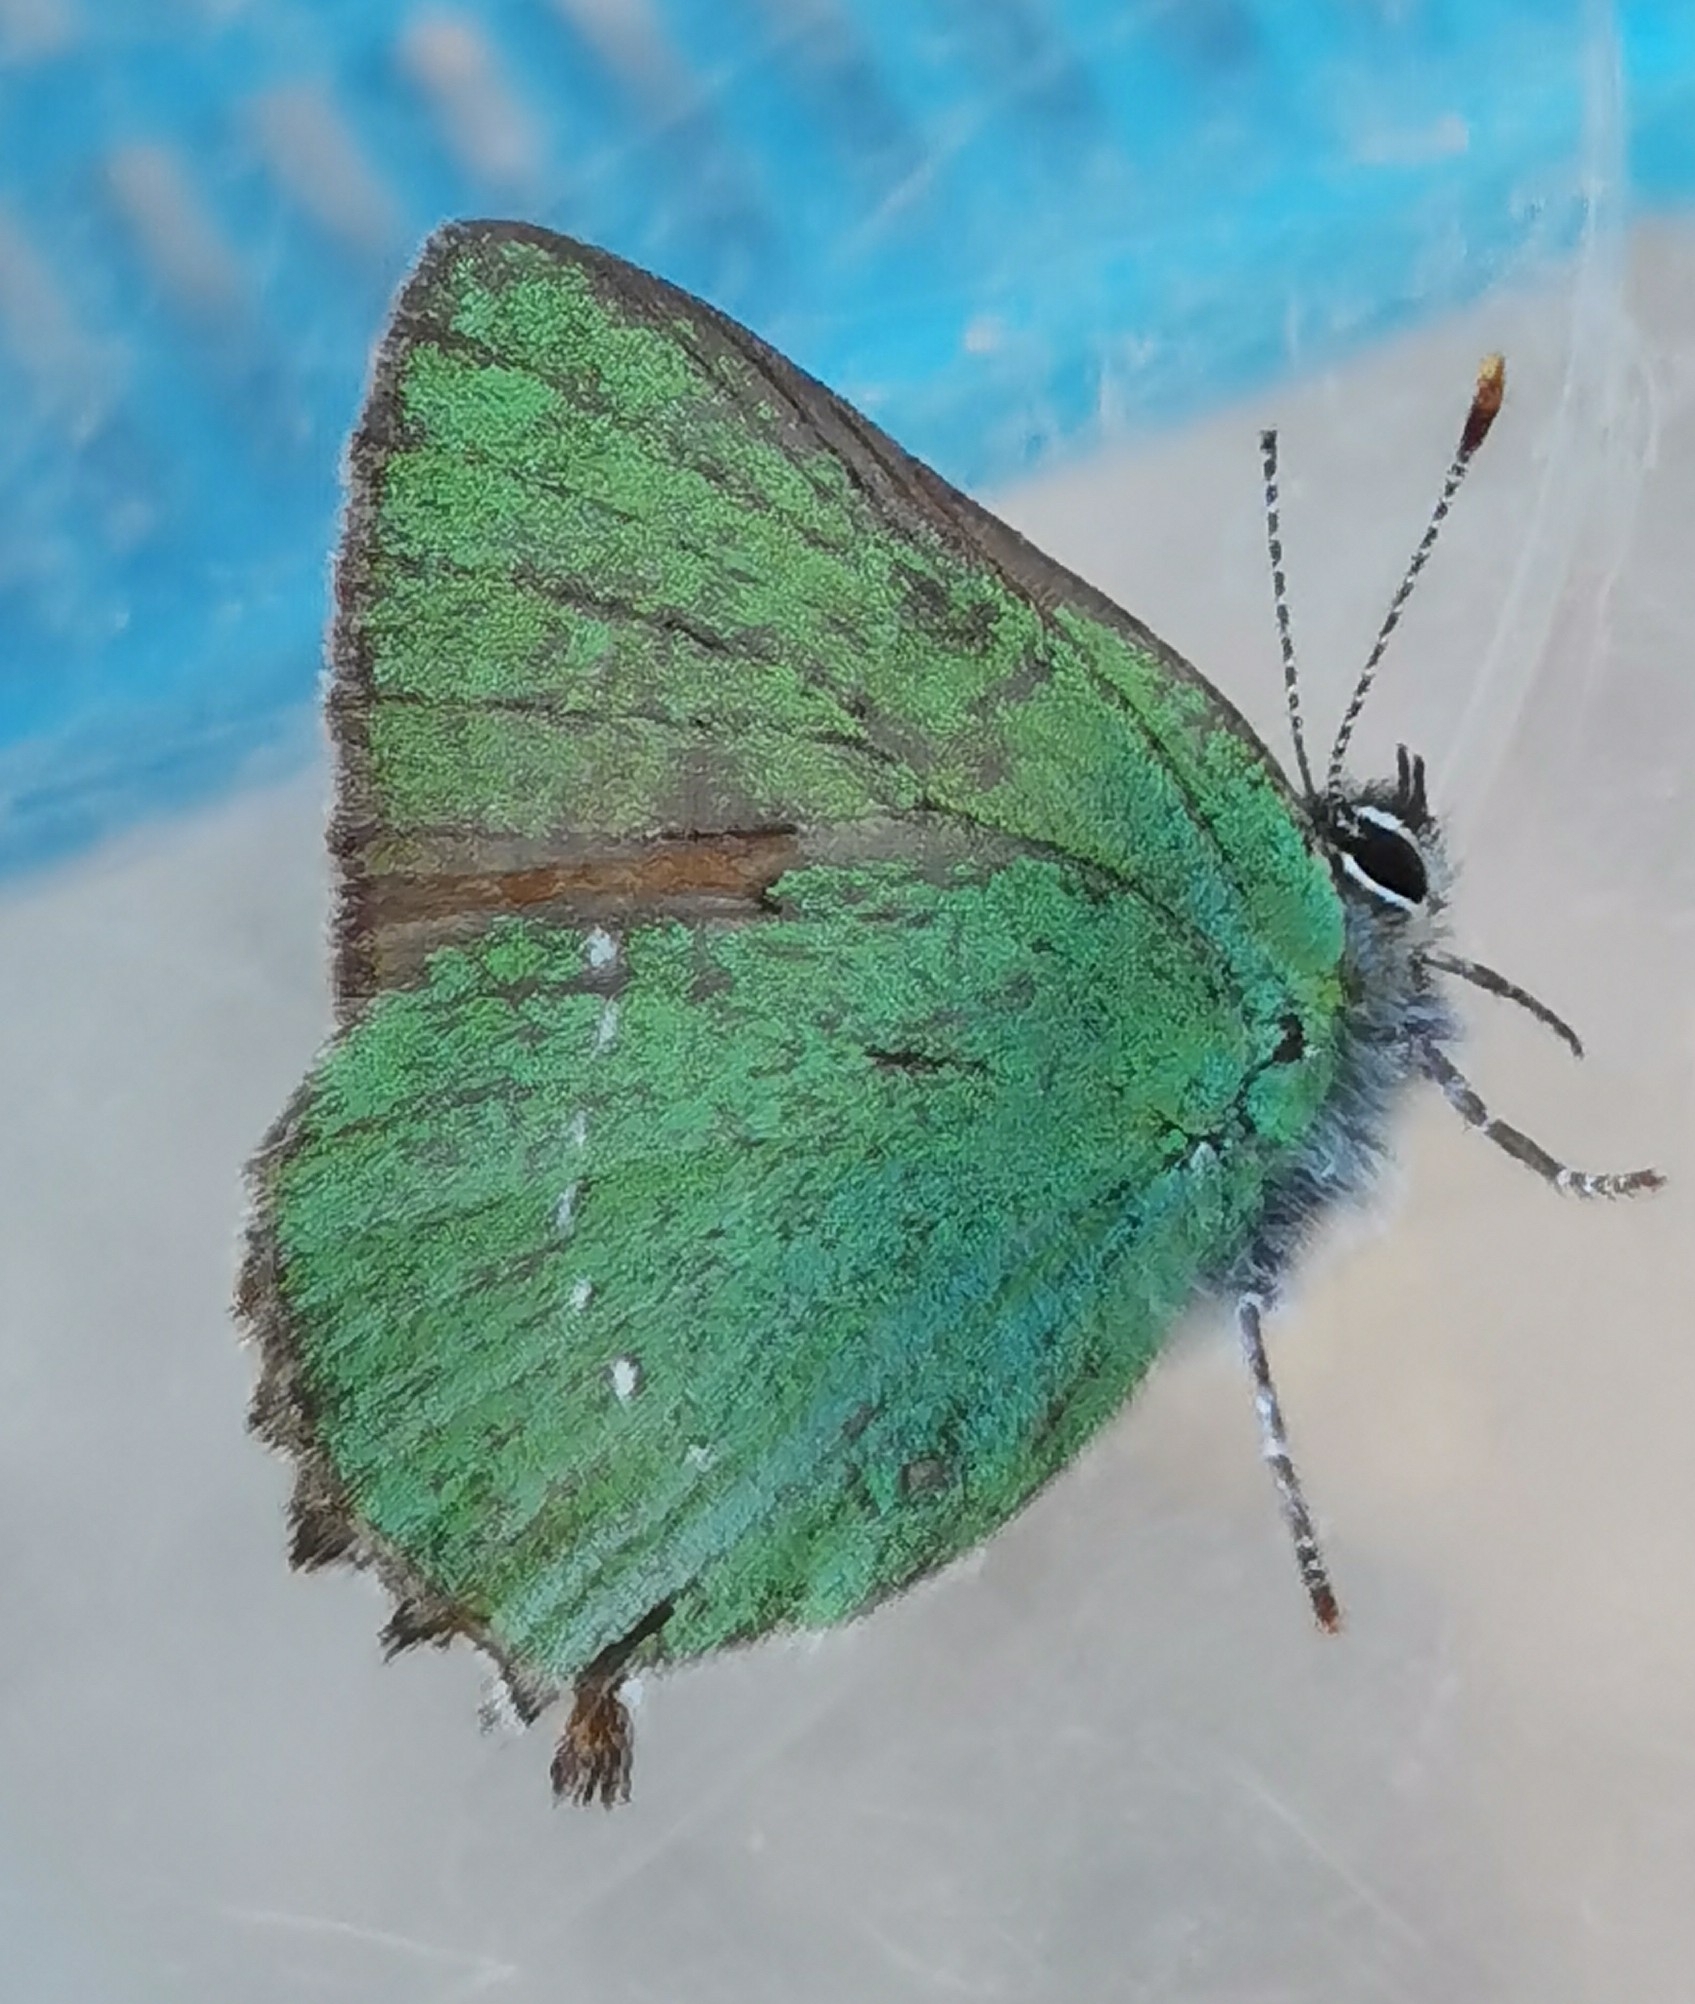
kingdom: Animalia
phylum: Arthropoda
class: Insecta
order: Lepidoptera
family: Lycaenidae
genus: Callophrys
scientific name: Callophrys rubi
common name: Green hairstreak
